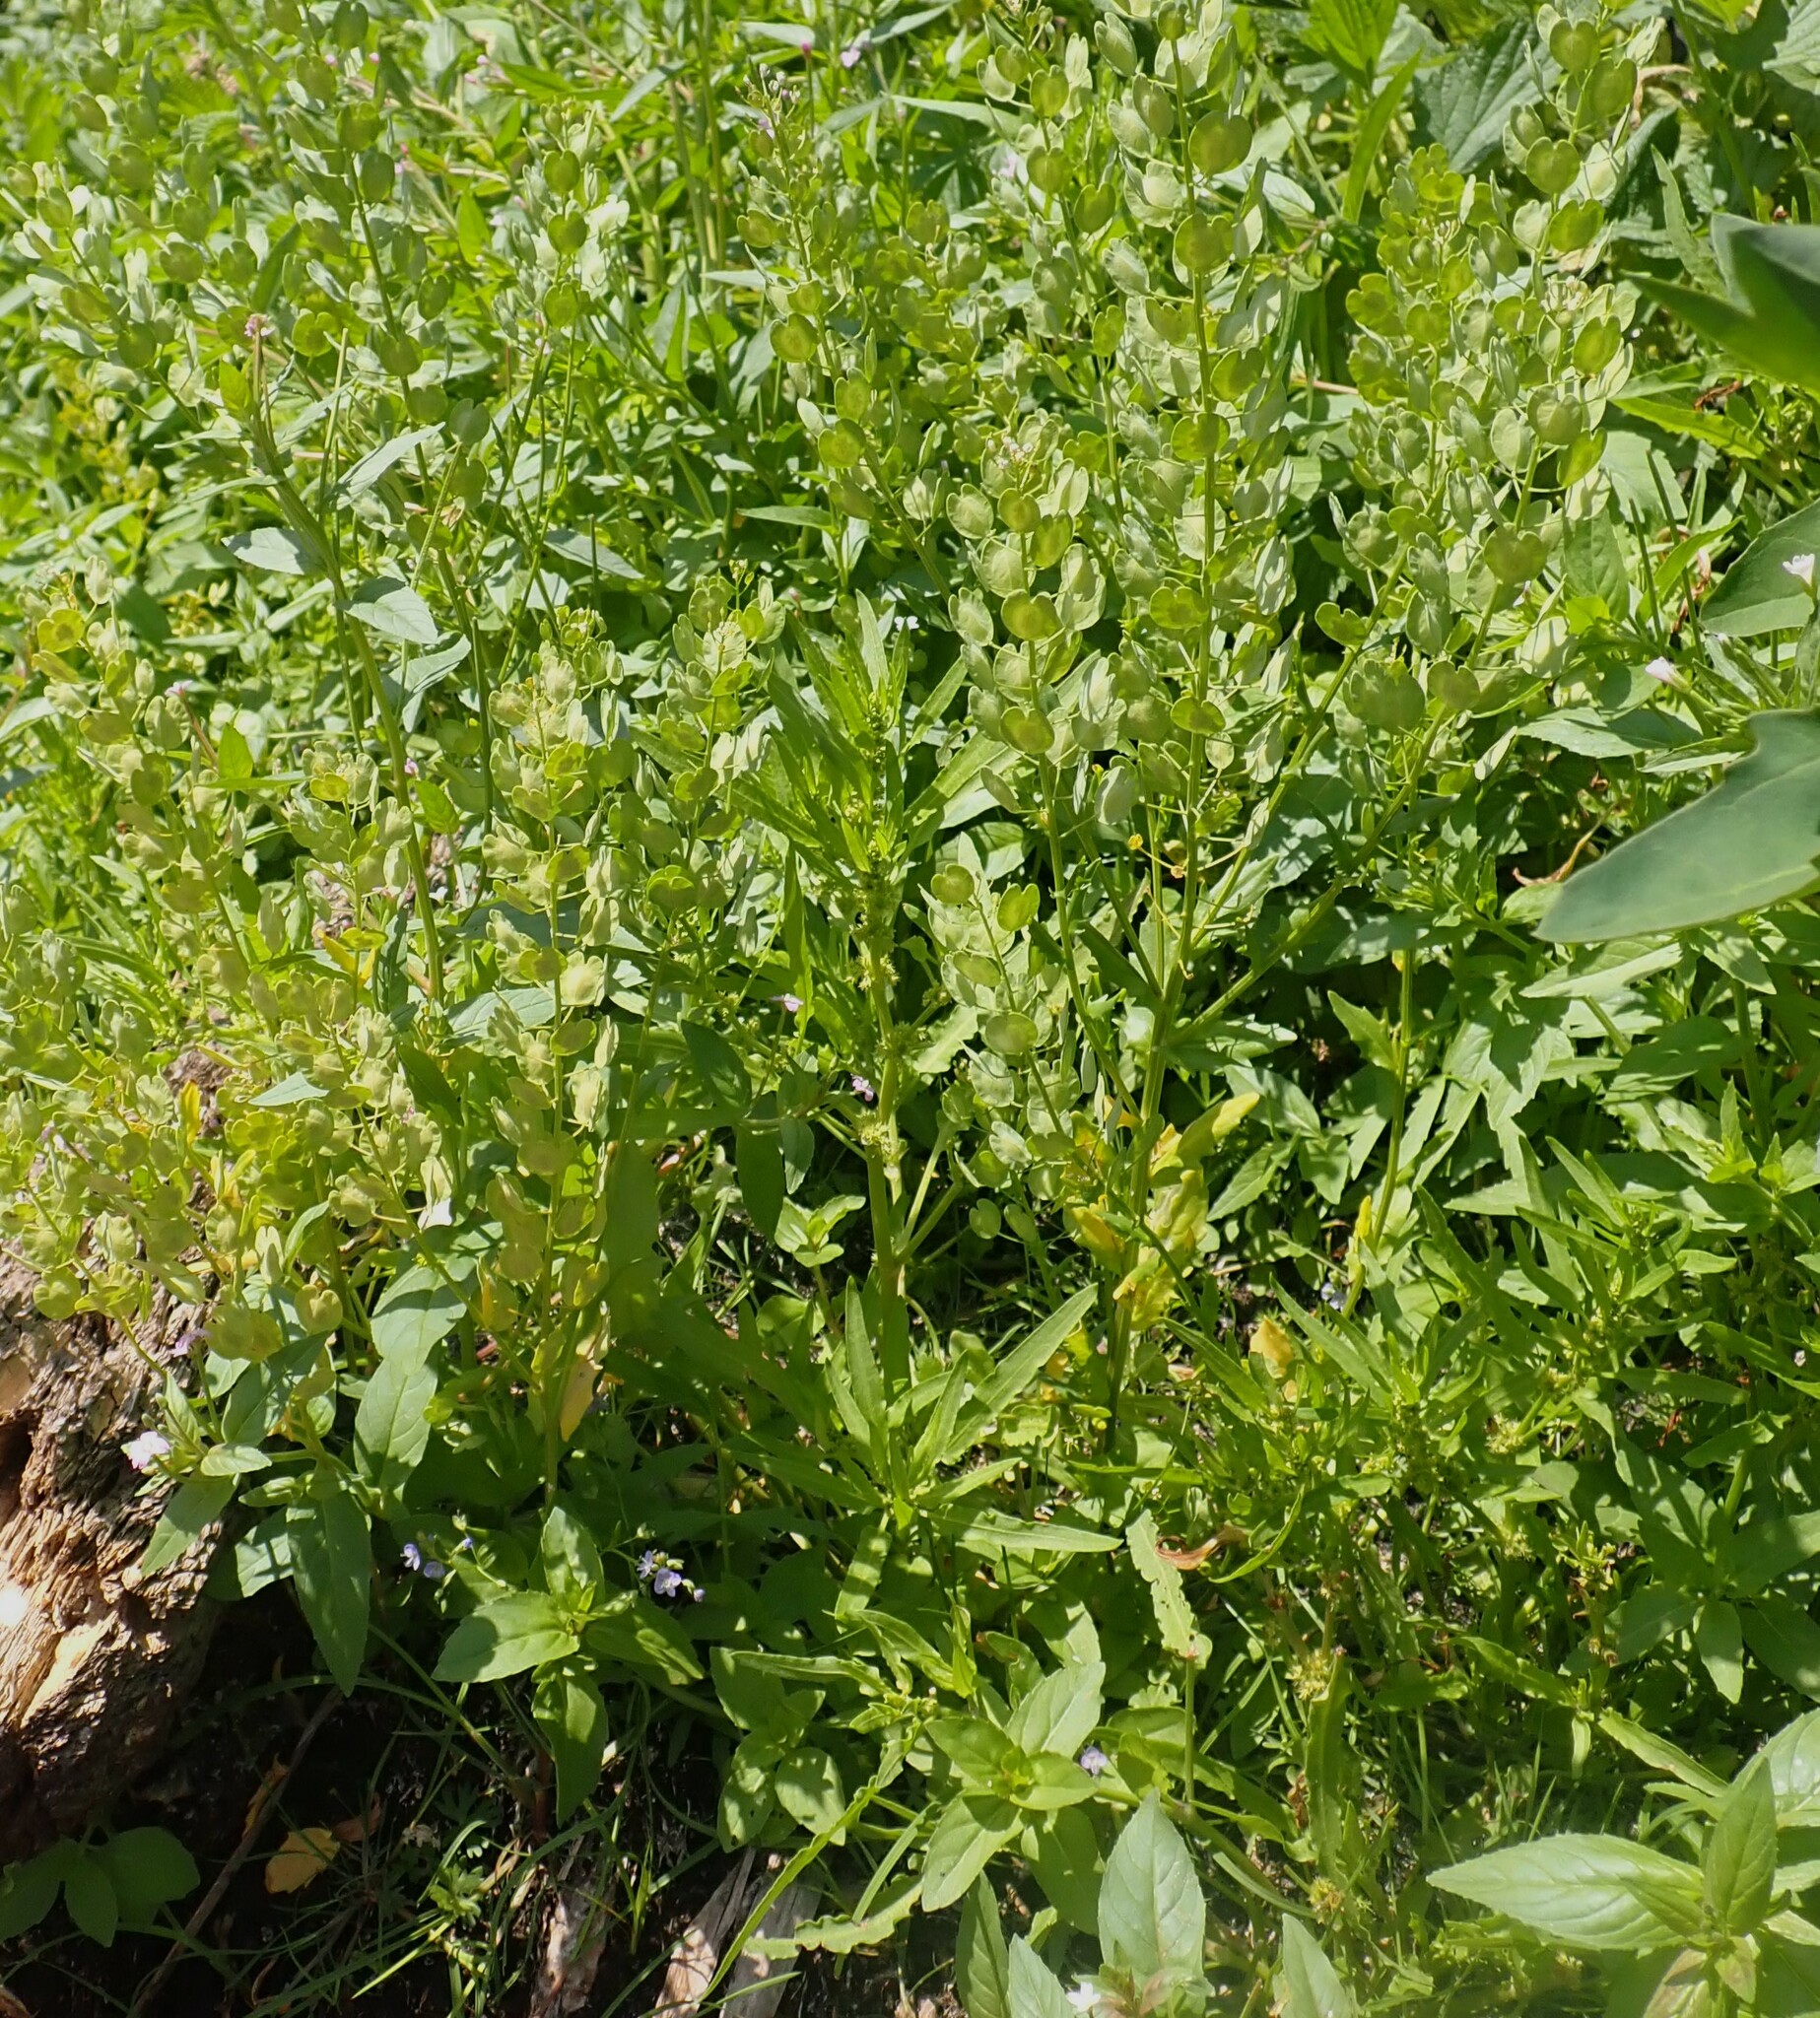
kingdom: Plantae
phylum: Tracheophyta
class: Magnoliopsida
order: Brassicales
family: Brassicaceae
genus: Thlaspi
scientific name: Thlaspi arvense
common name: Field pennycress
